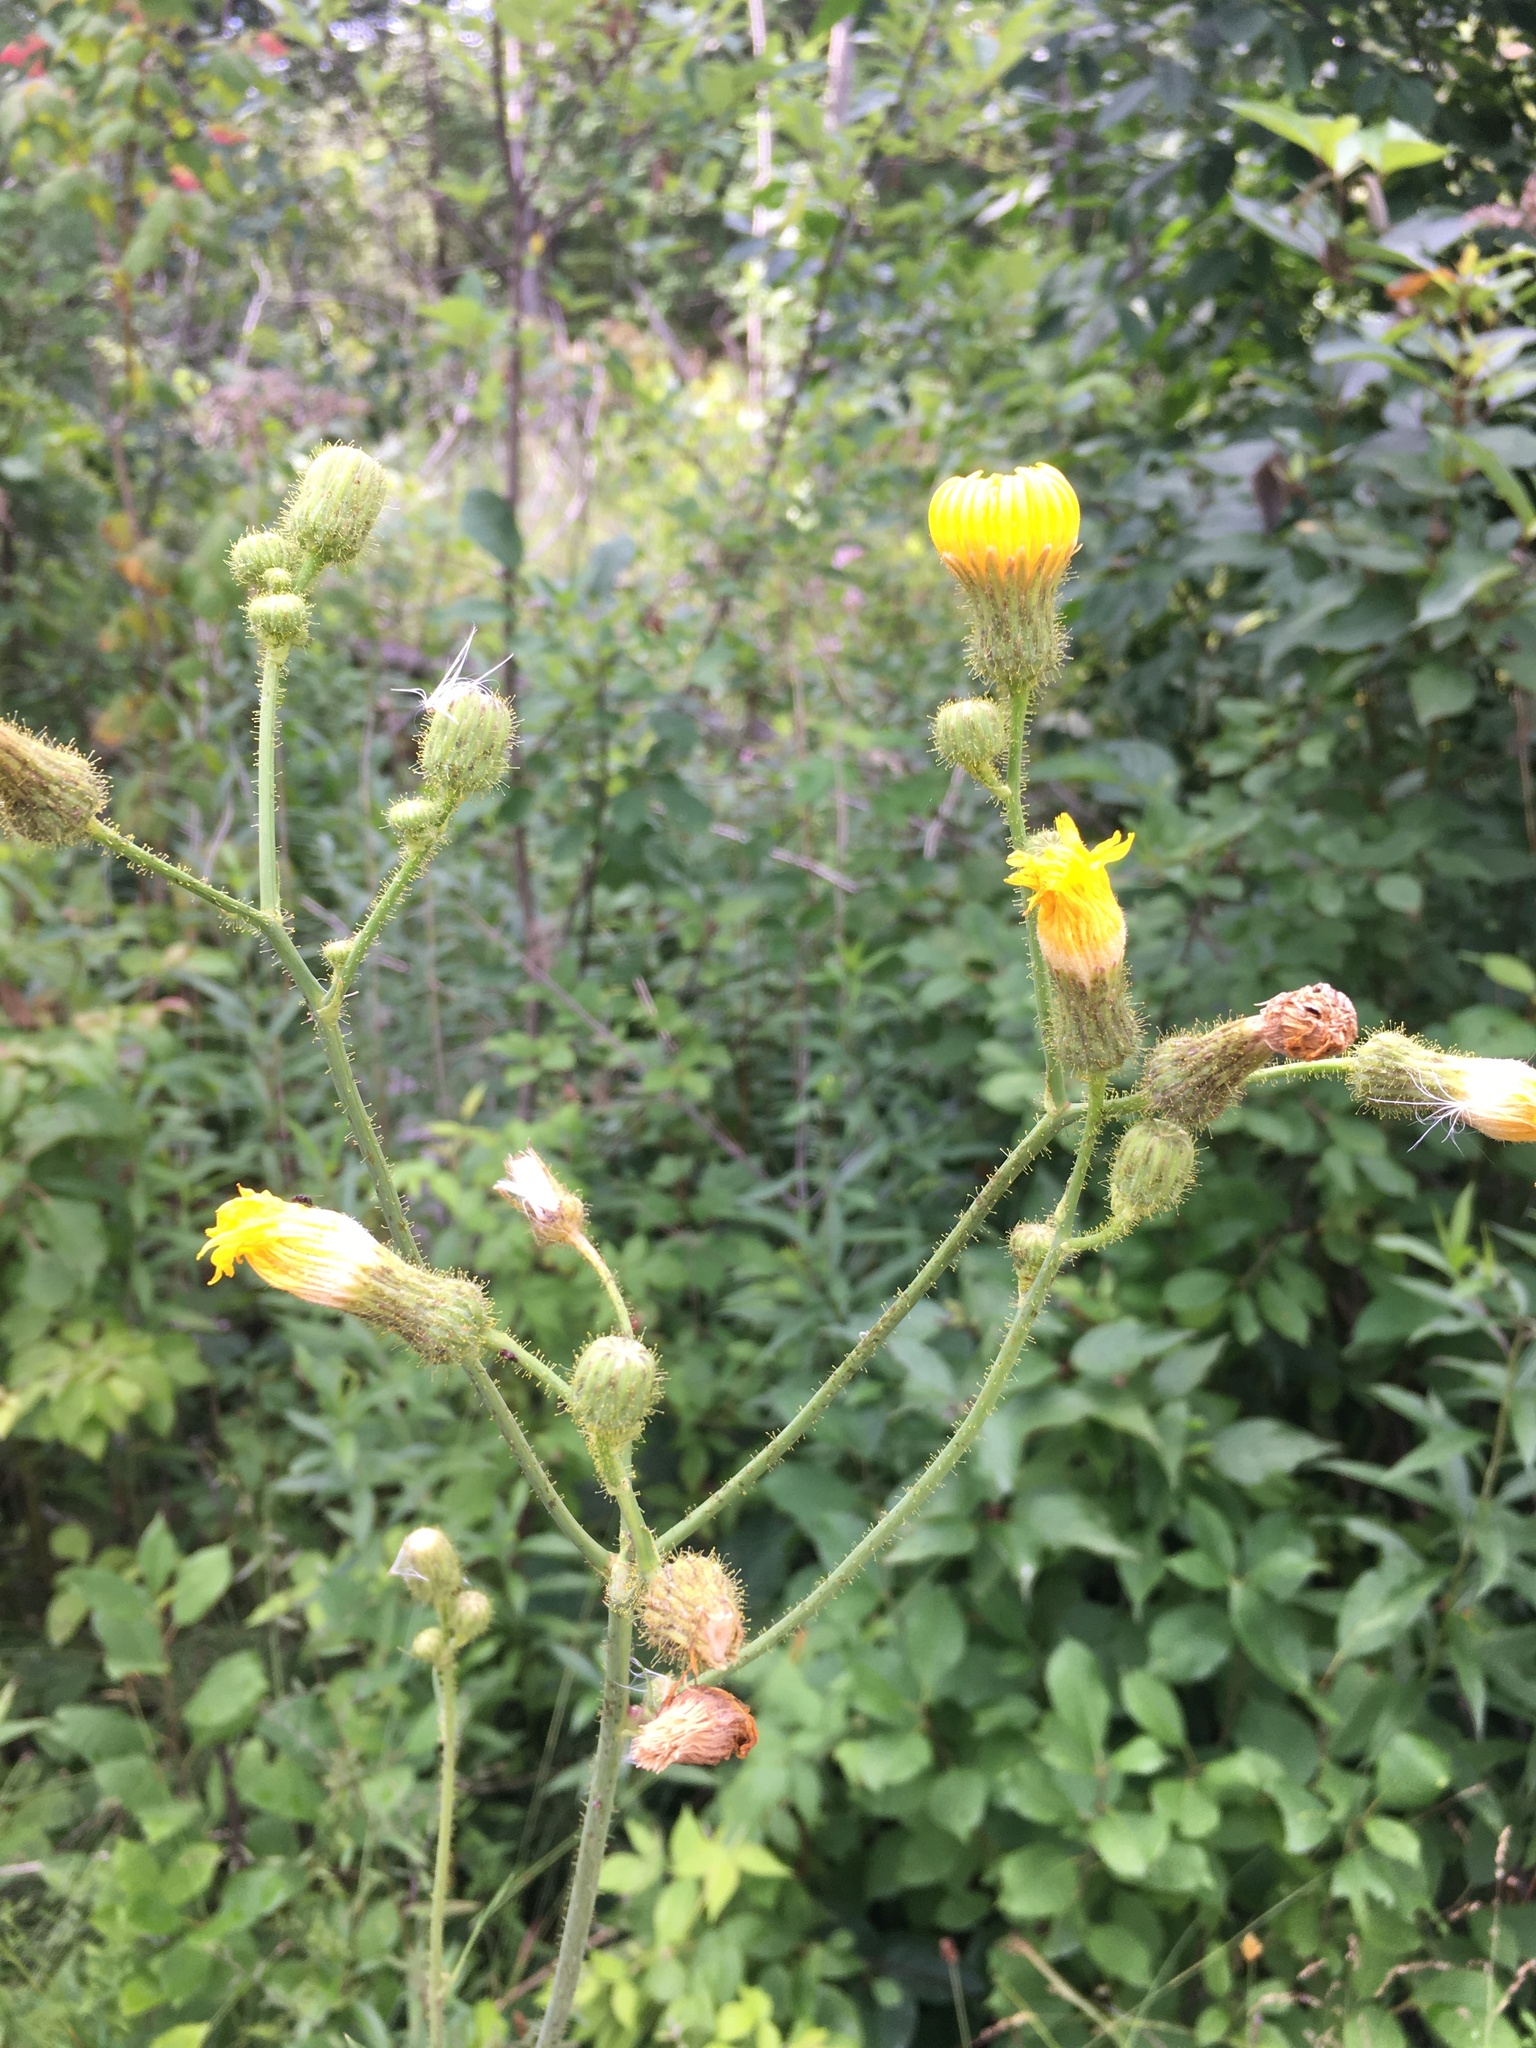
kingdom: Plantae
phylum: Tracheophyta
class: Magnoliopsida
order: Asterales
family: Asteraceae
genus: Sonchus
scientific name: Sonchus arvensis
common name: Perennial sow-thistle
